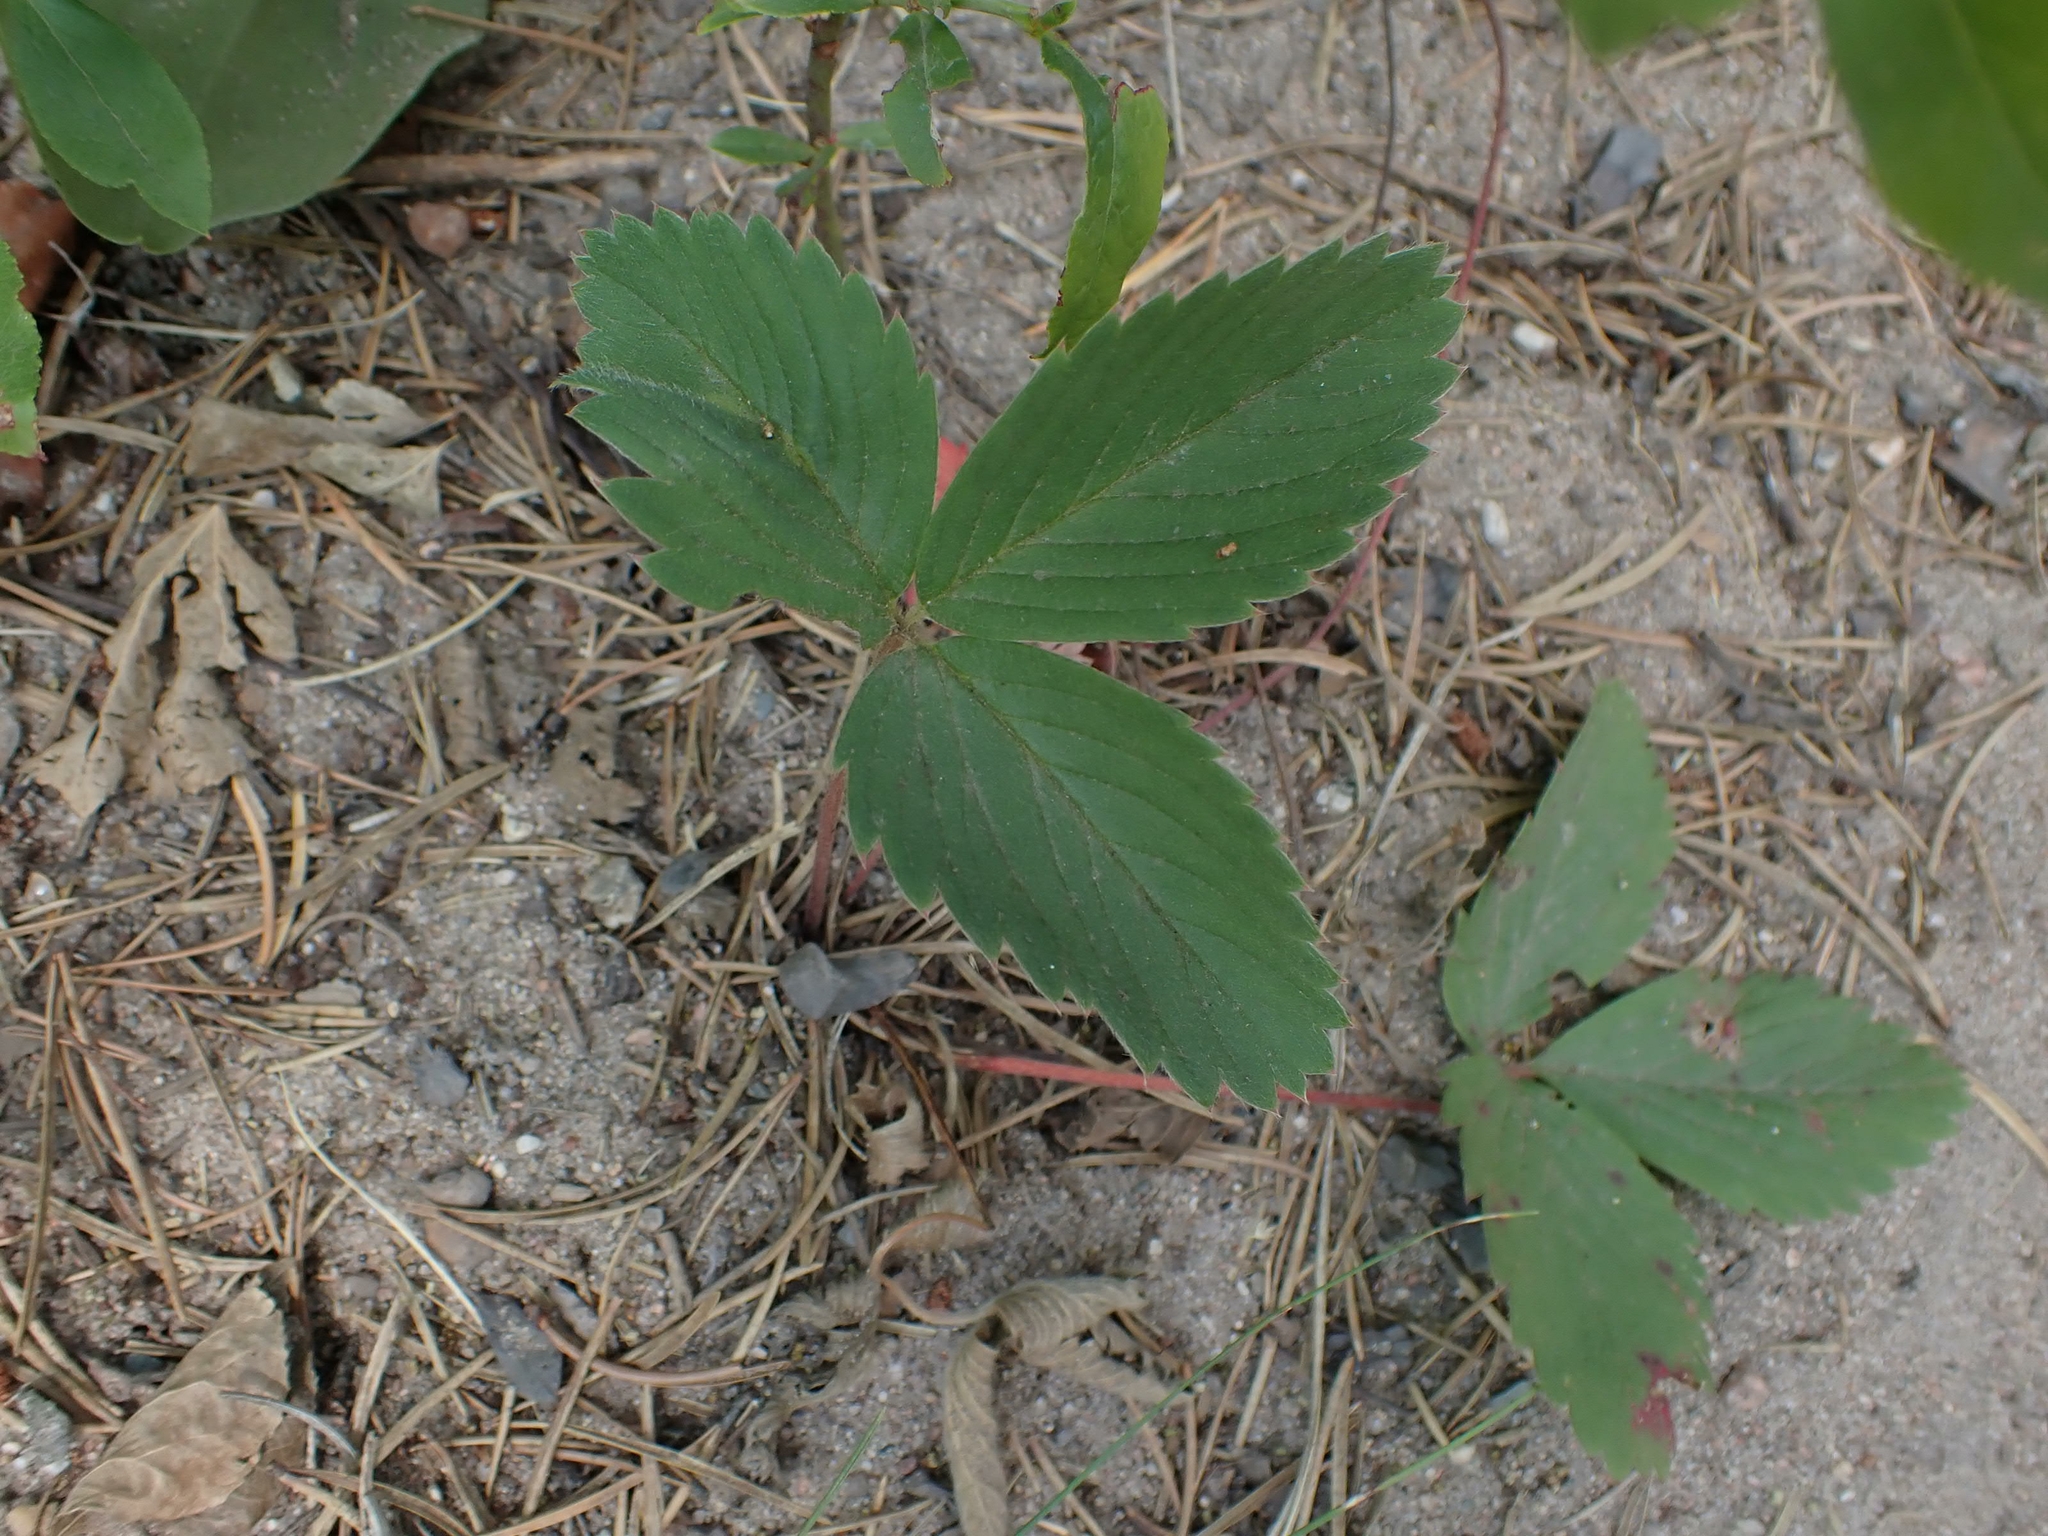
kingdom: Plantae
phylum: Tracheophyta
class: Magnoliopsida
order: Rosales
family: Rosaceae
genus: Fragaria
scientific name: Fragaria virginiana
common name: Thickleaved wild strawberry
